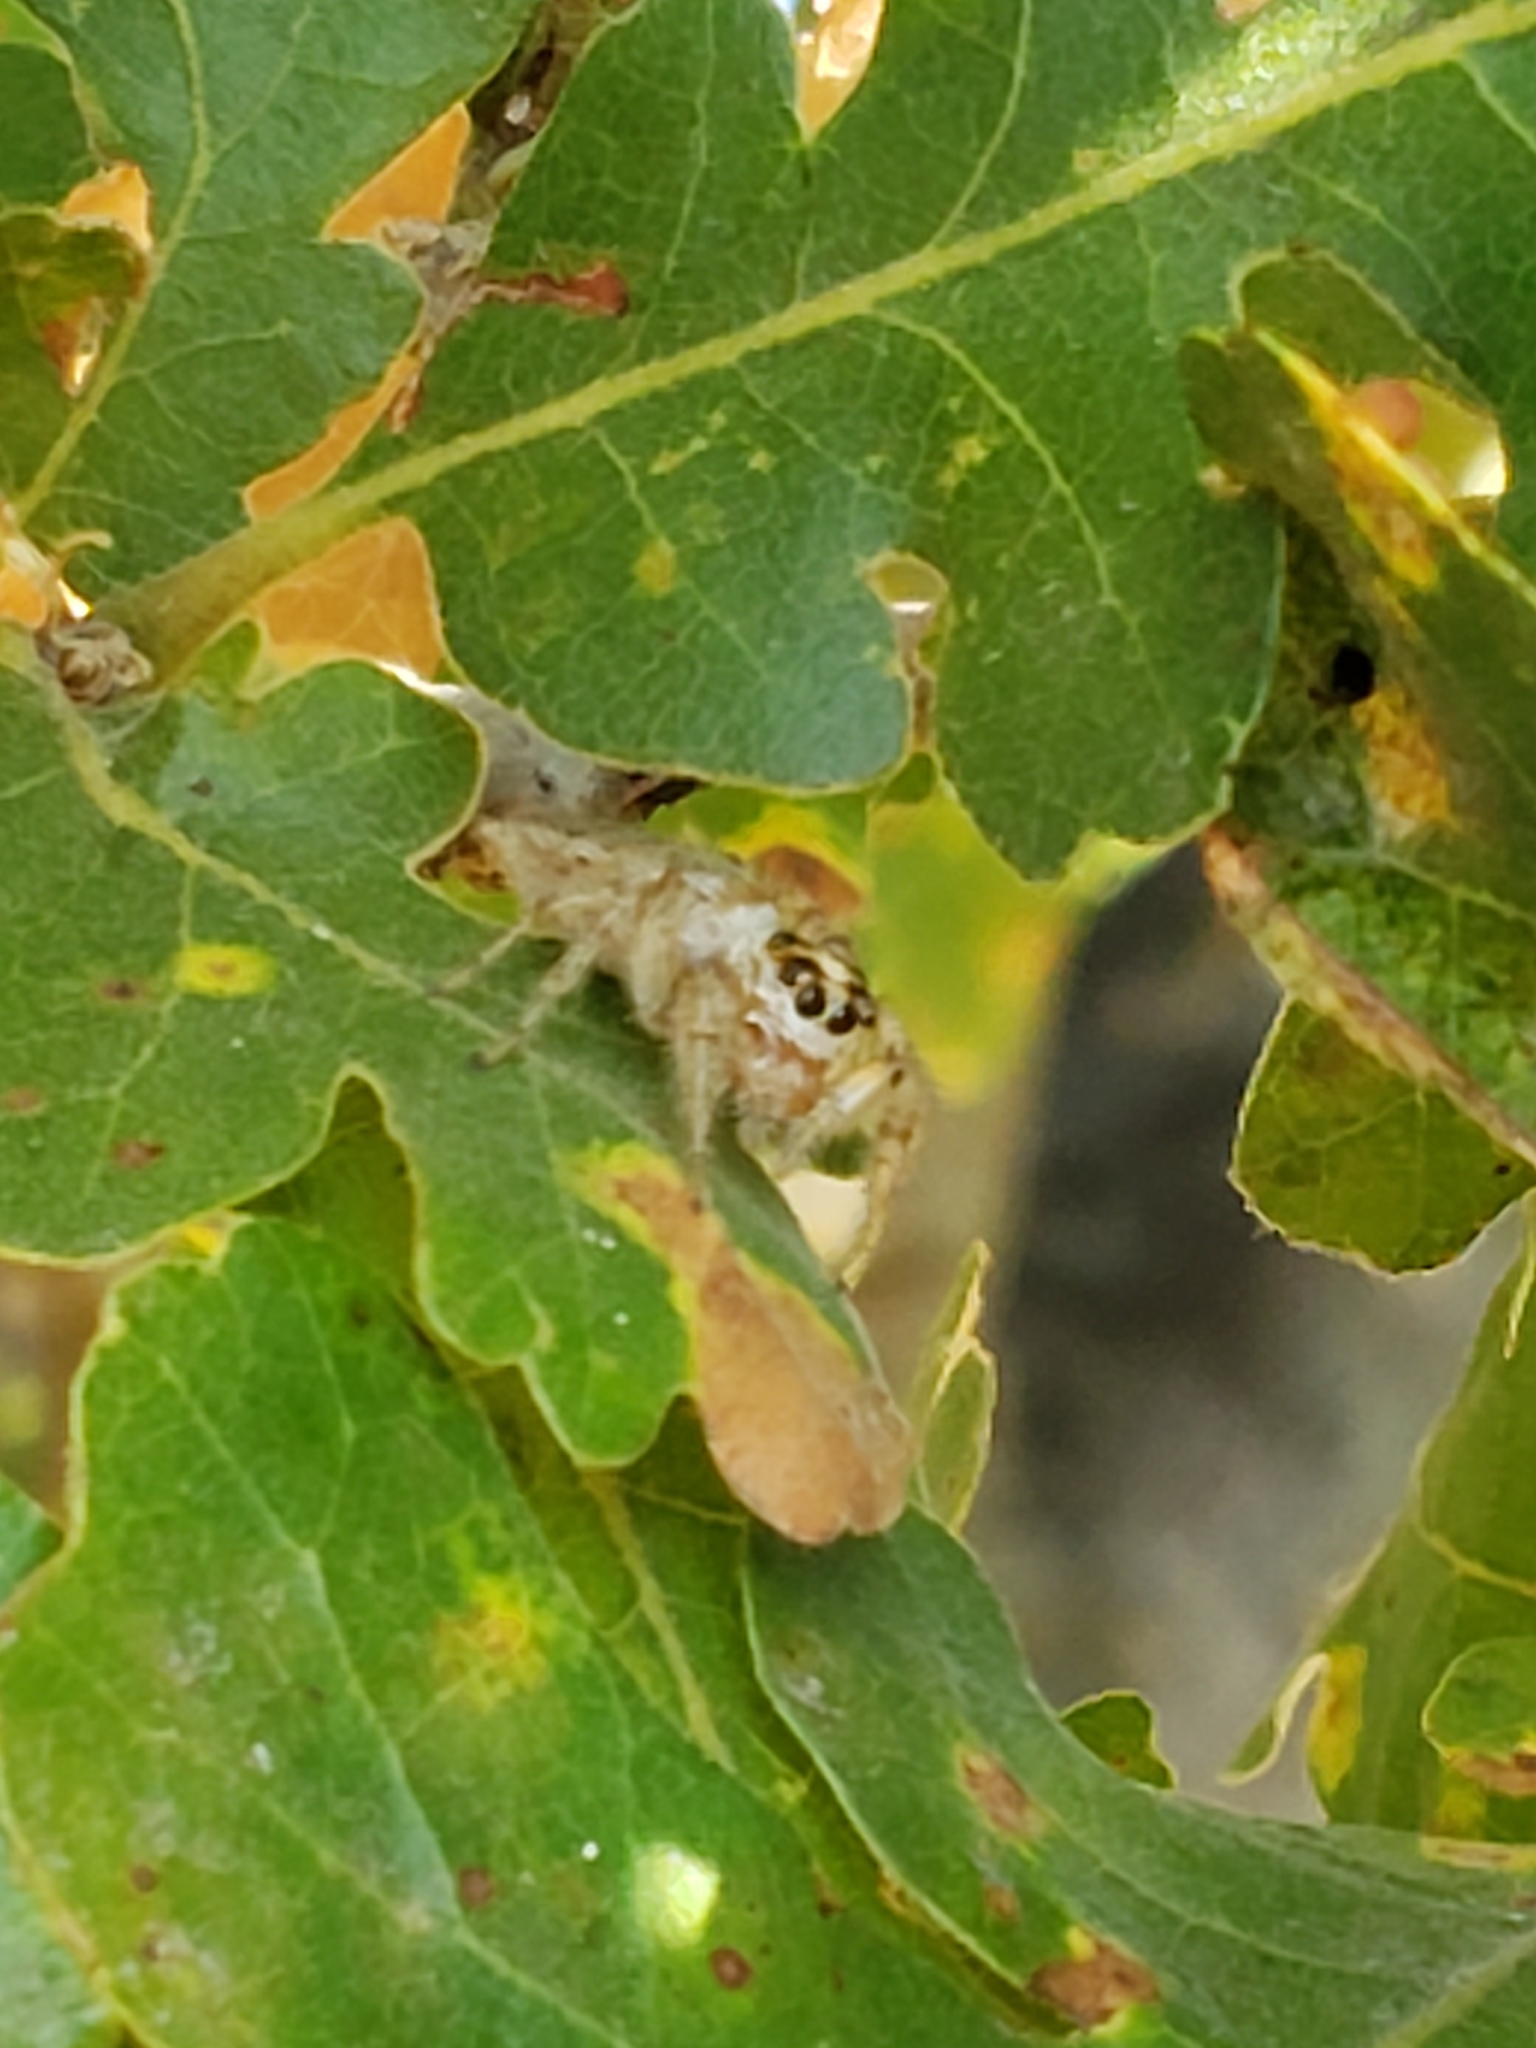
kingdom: Animalia
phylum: Arthropoda
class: Arachnida
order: Araneae
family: Salticidae
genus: Colonus
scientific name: Colonus hesperus
